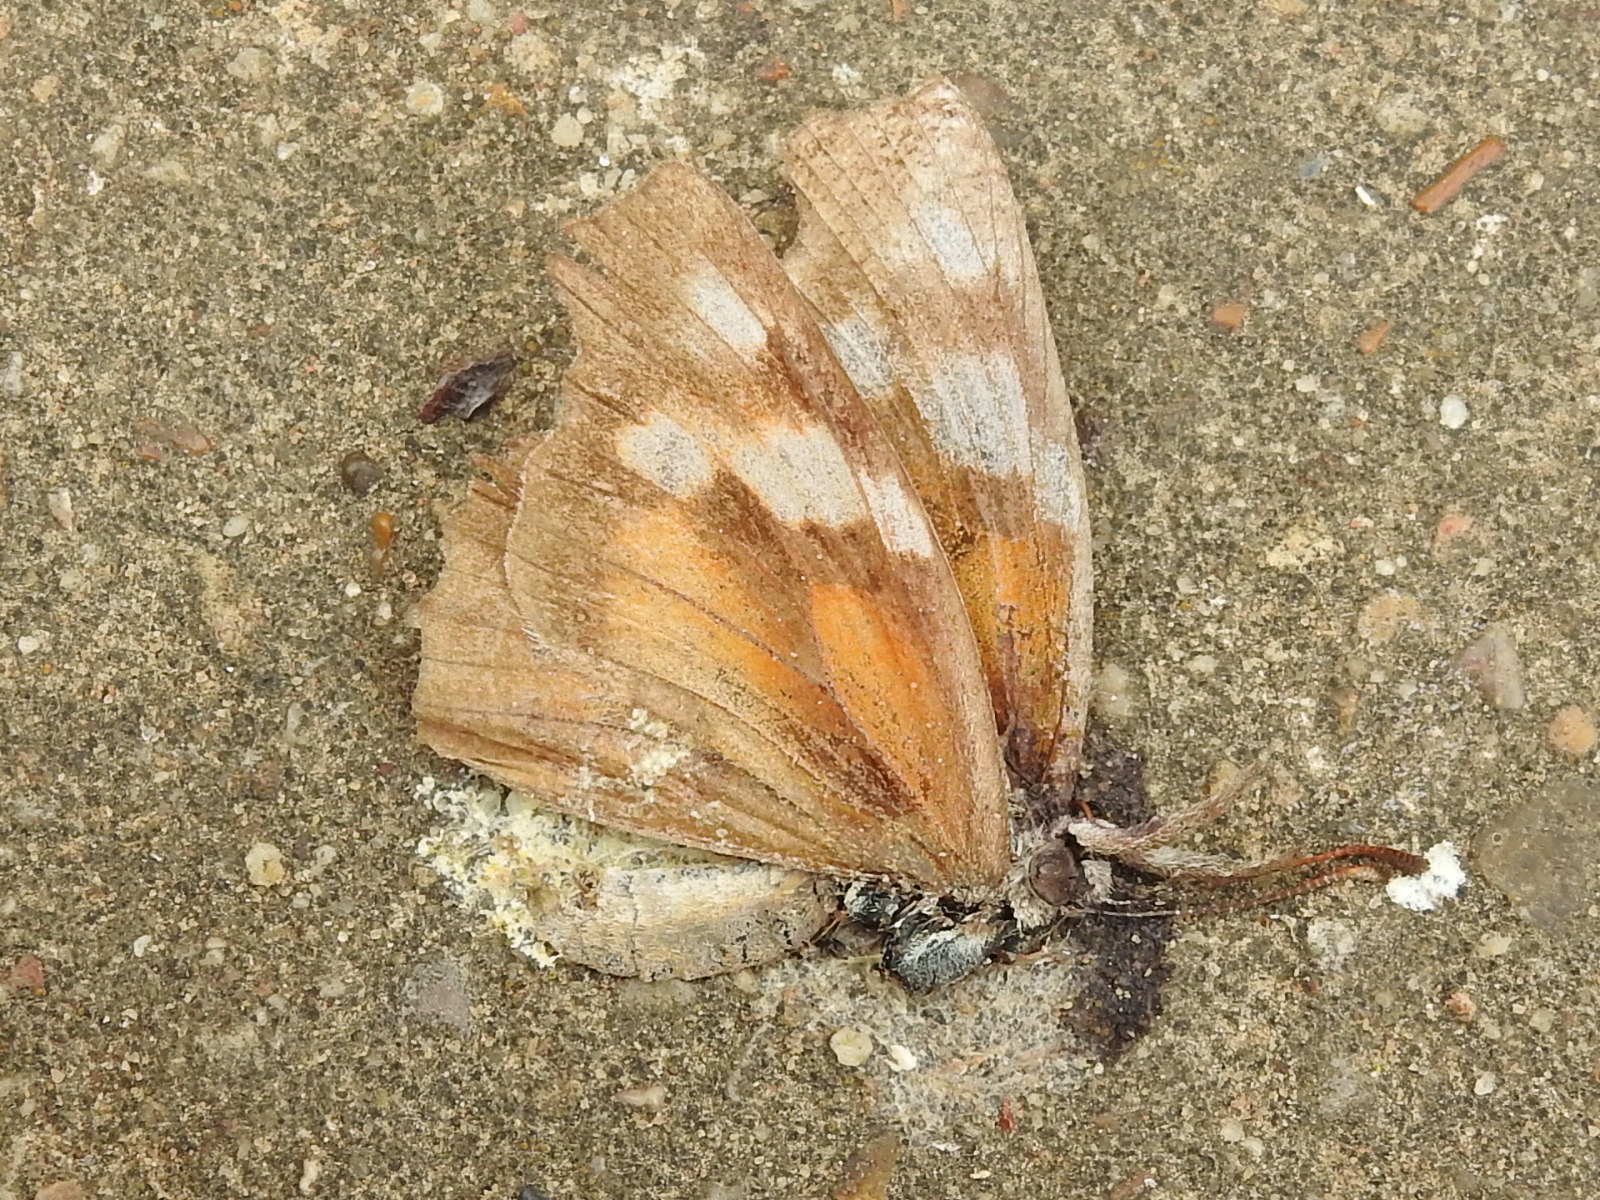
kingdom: Animalia
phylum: Arthropoda
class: Insecta
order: Lepidoptera
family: Nymphalidae
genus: Libytheana
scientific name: Libytheana carinenta
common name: American snout
